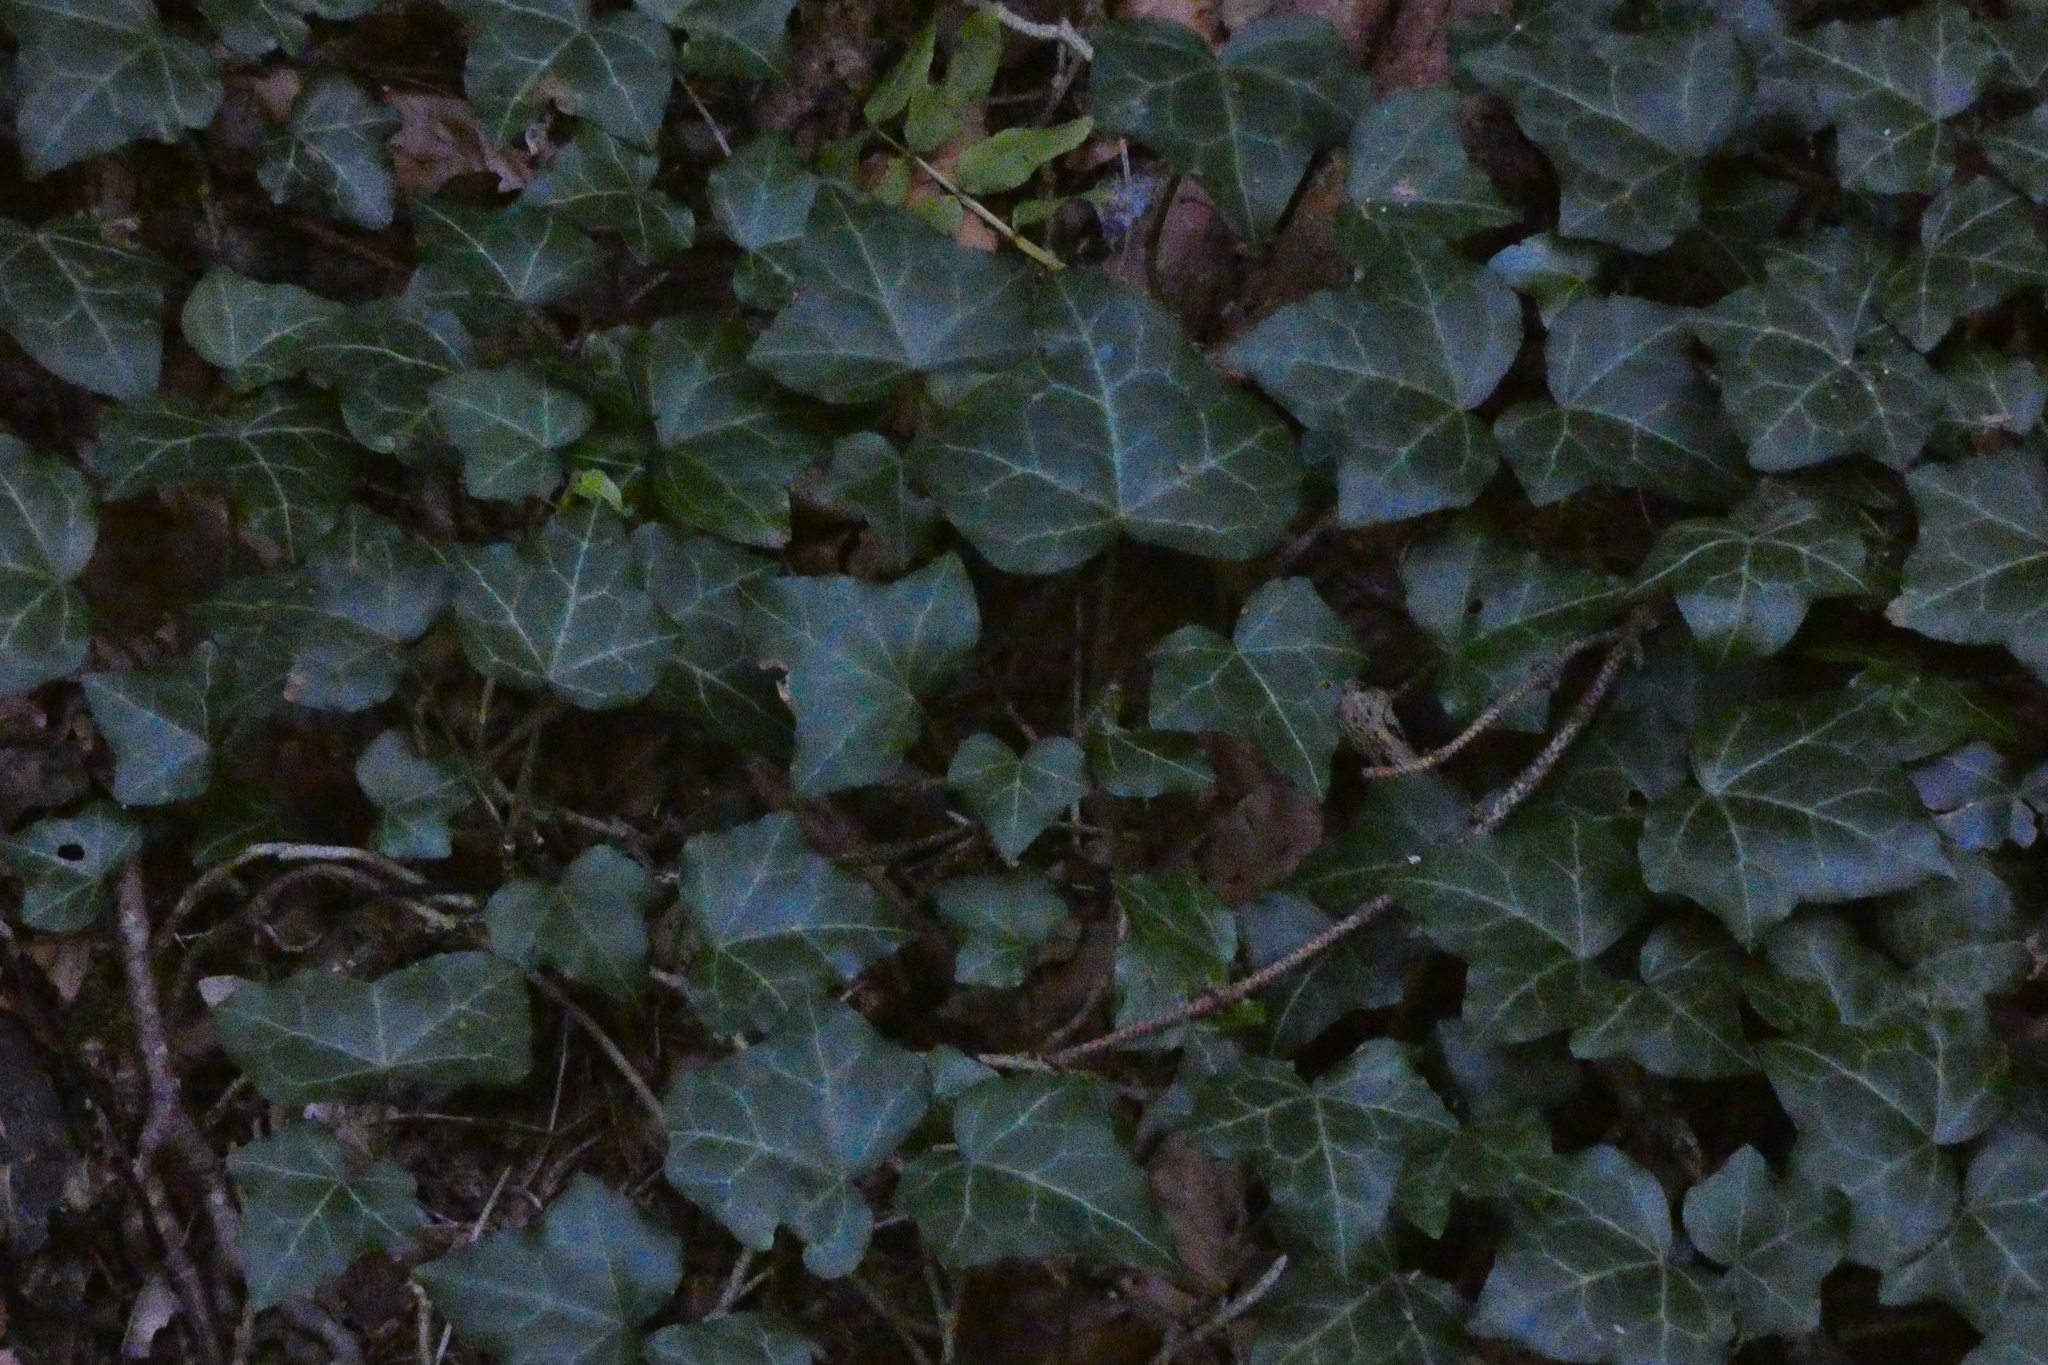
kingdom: Plantae
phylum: Tracheophyta
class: Magnoliopsida
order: Apiales
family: Araliaceae
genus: Hedera
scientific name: Hedera helix
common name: Ivy
